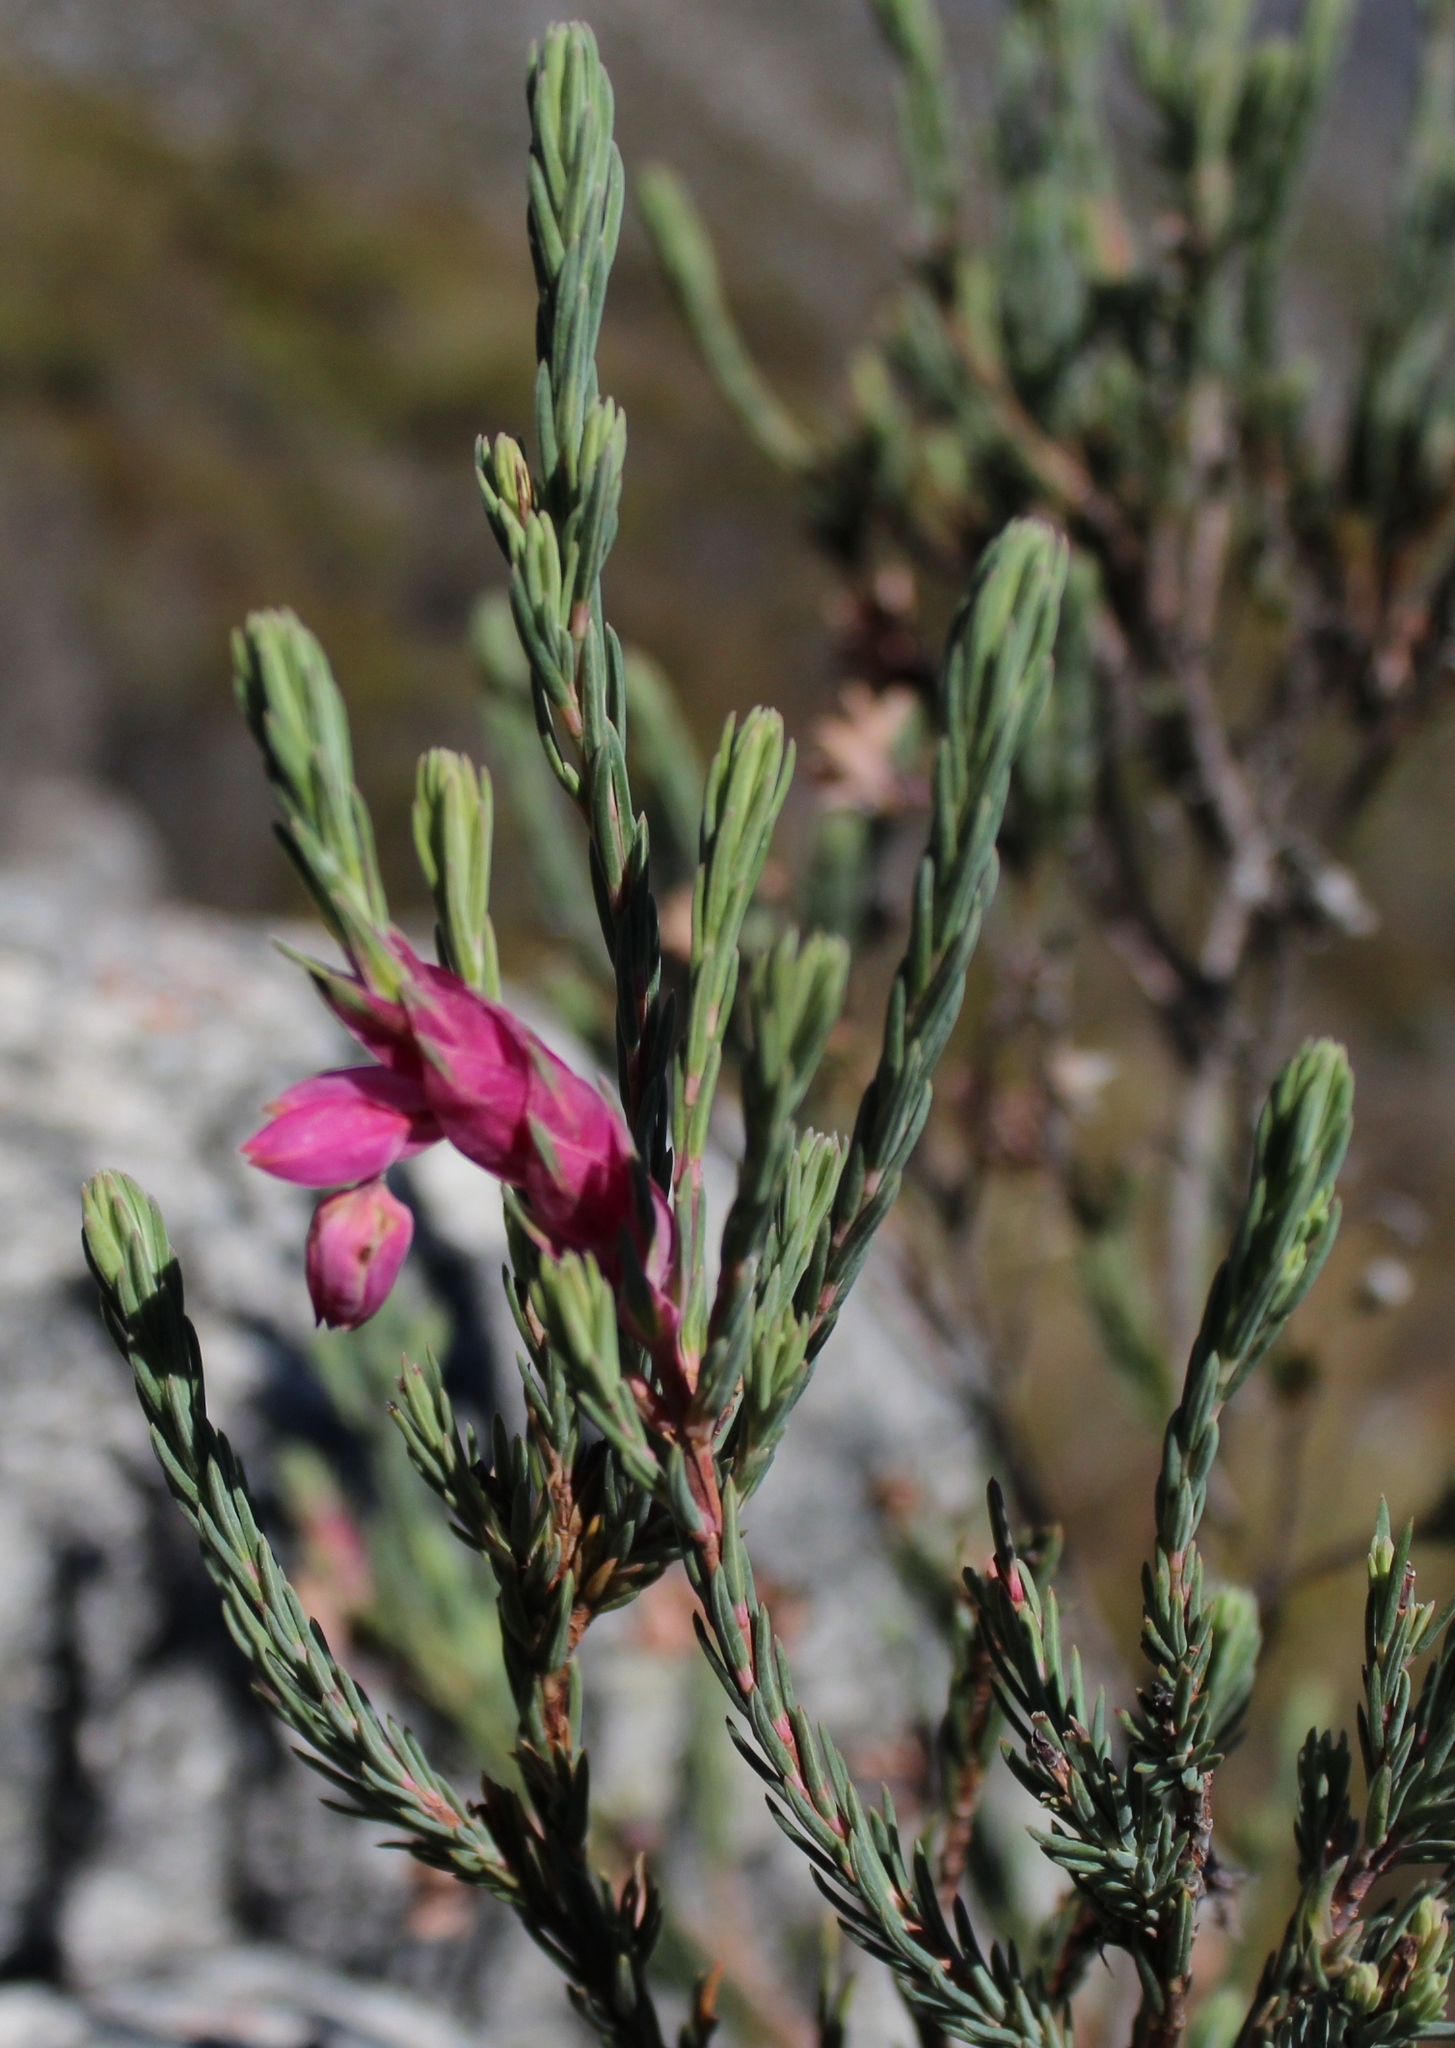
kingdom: Plantae
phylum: Tracheophyta
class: Magnoliopsida
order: Ericales
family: Ericaceae
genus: Erica
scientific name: Erica glauca
